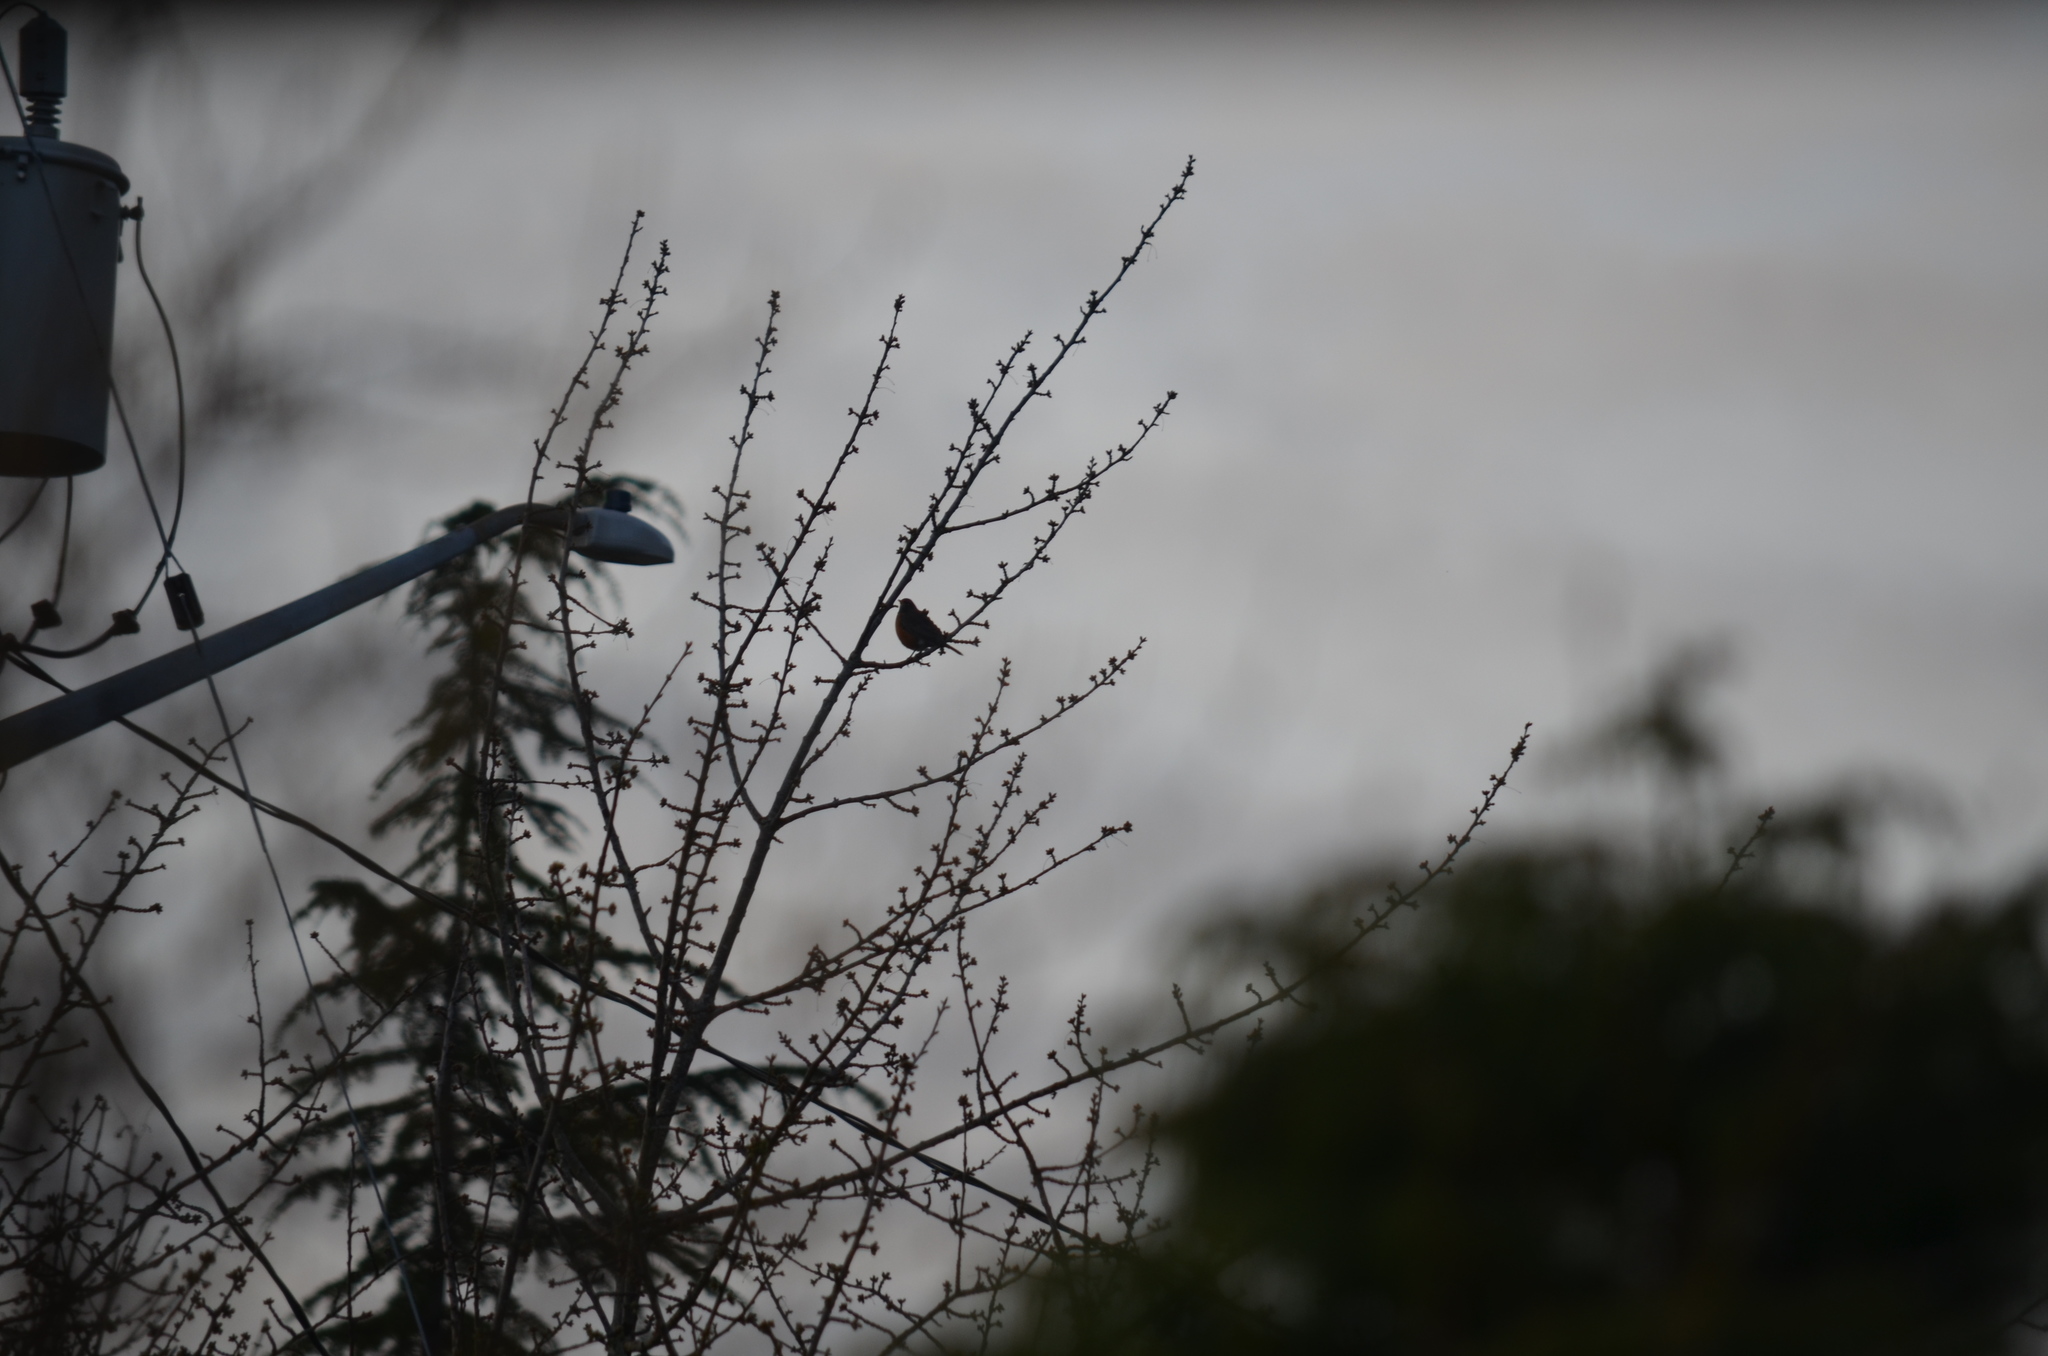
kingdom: Animalia
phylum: Chordata
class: Aves
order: Passeriformes
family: Turdidae
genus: Turdus
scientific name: Turdus migratorius
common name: American robin
